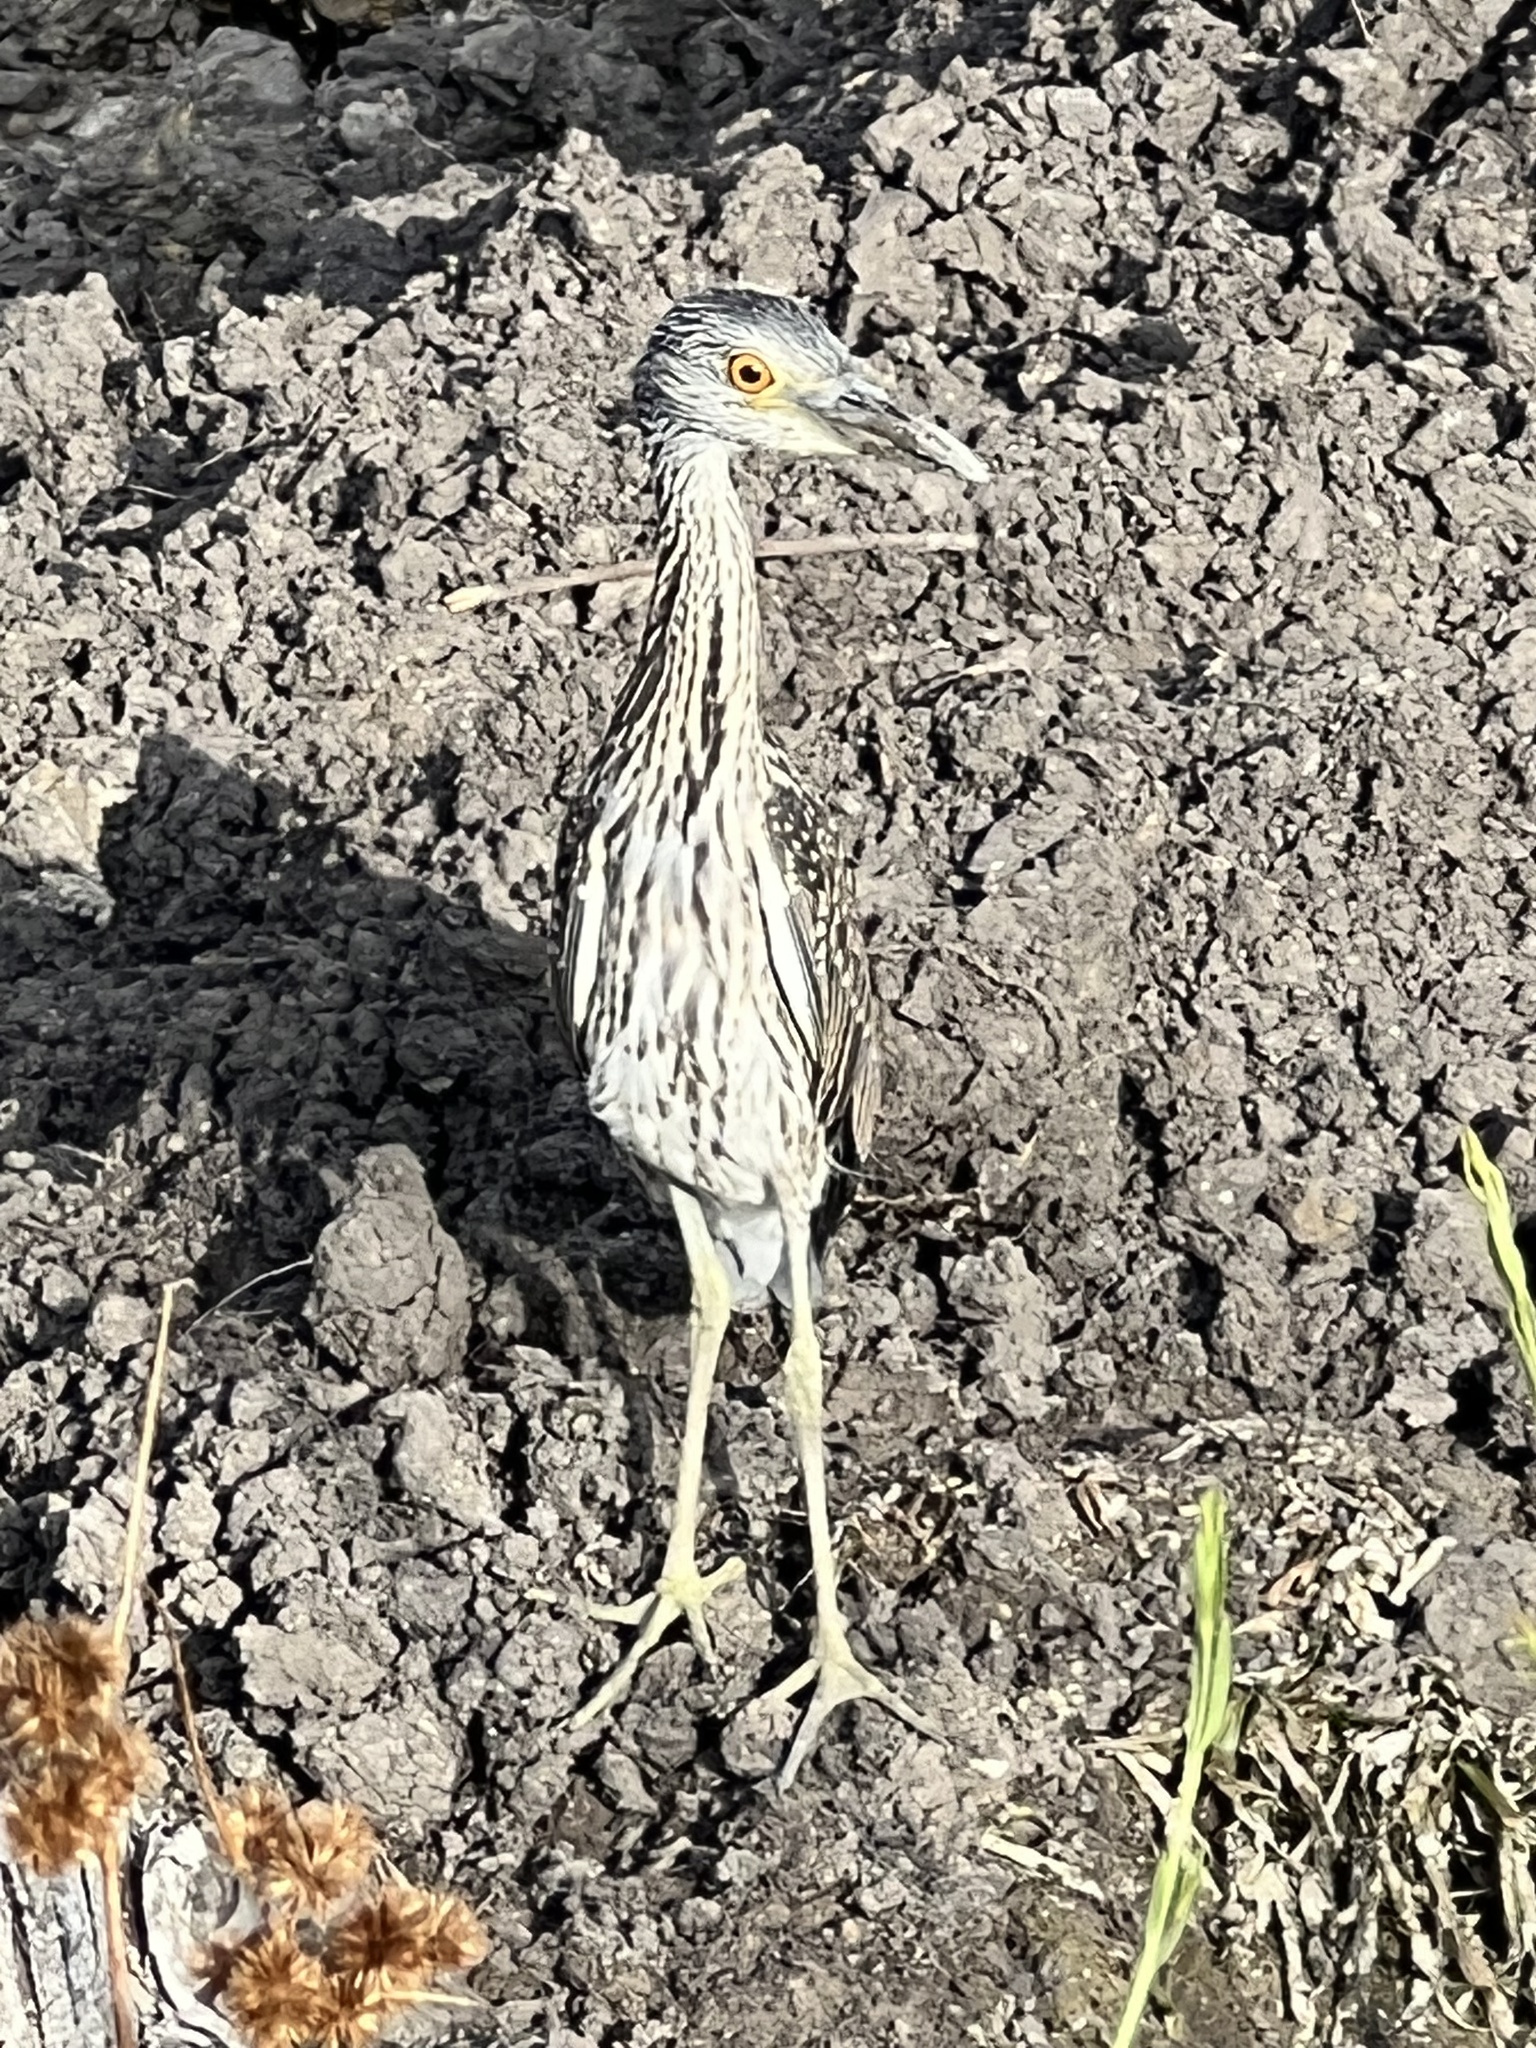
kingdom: Animalia
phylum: Chordata
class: Aves
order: Pelecaniformes
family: Ardeidae
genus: Nyctanassa
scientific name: Nyctanassa violacea
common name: Yellow-crowned night heron
